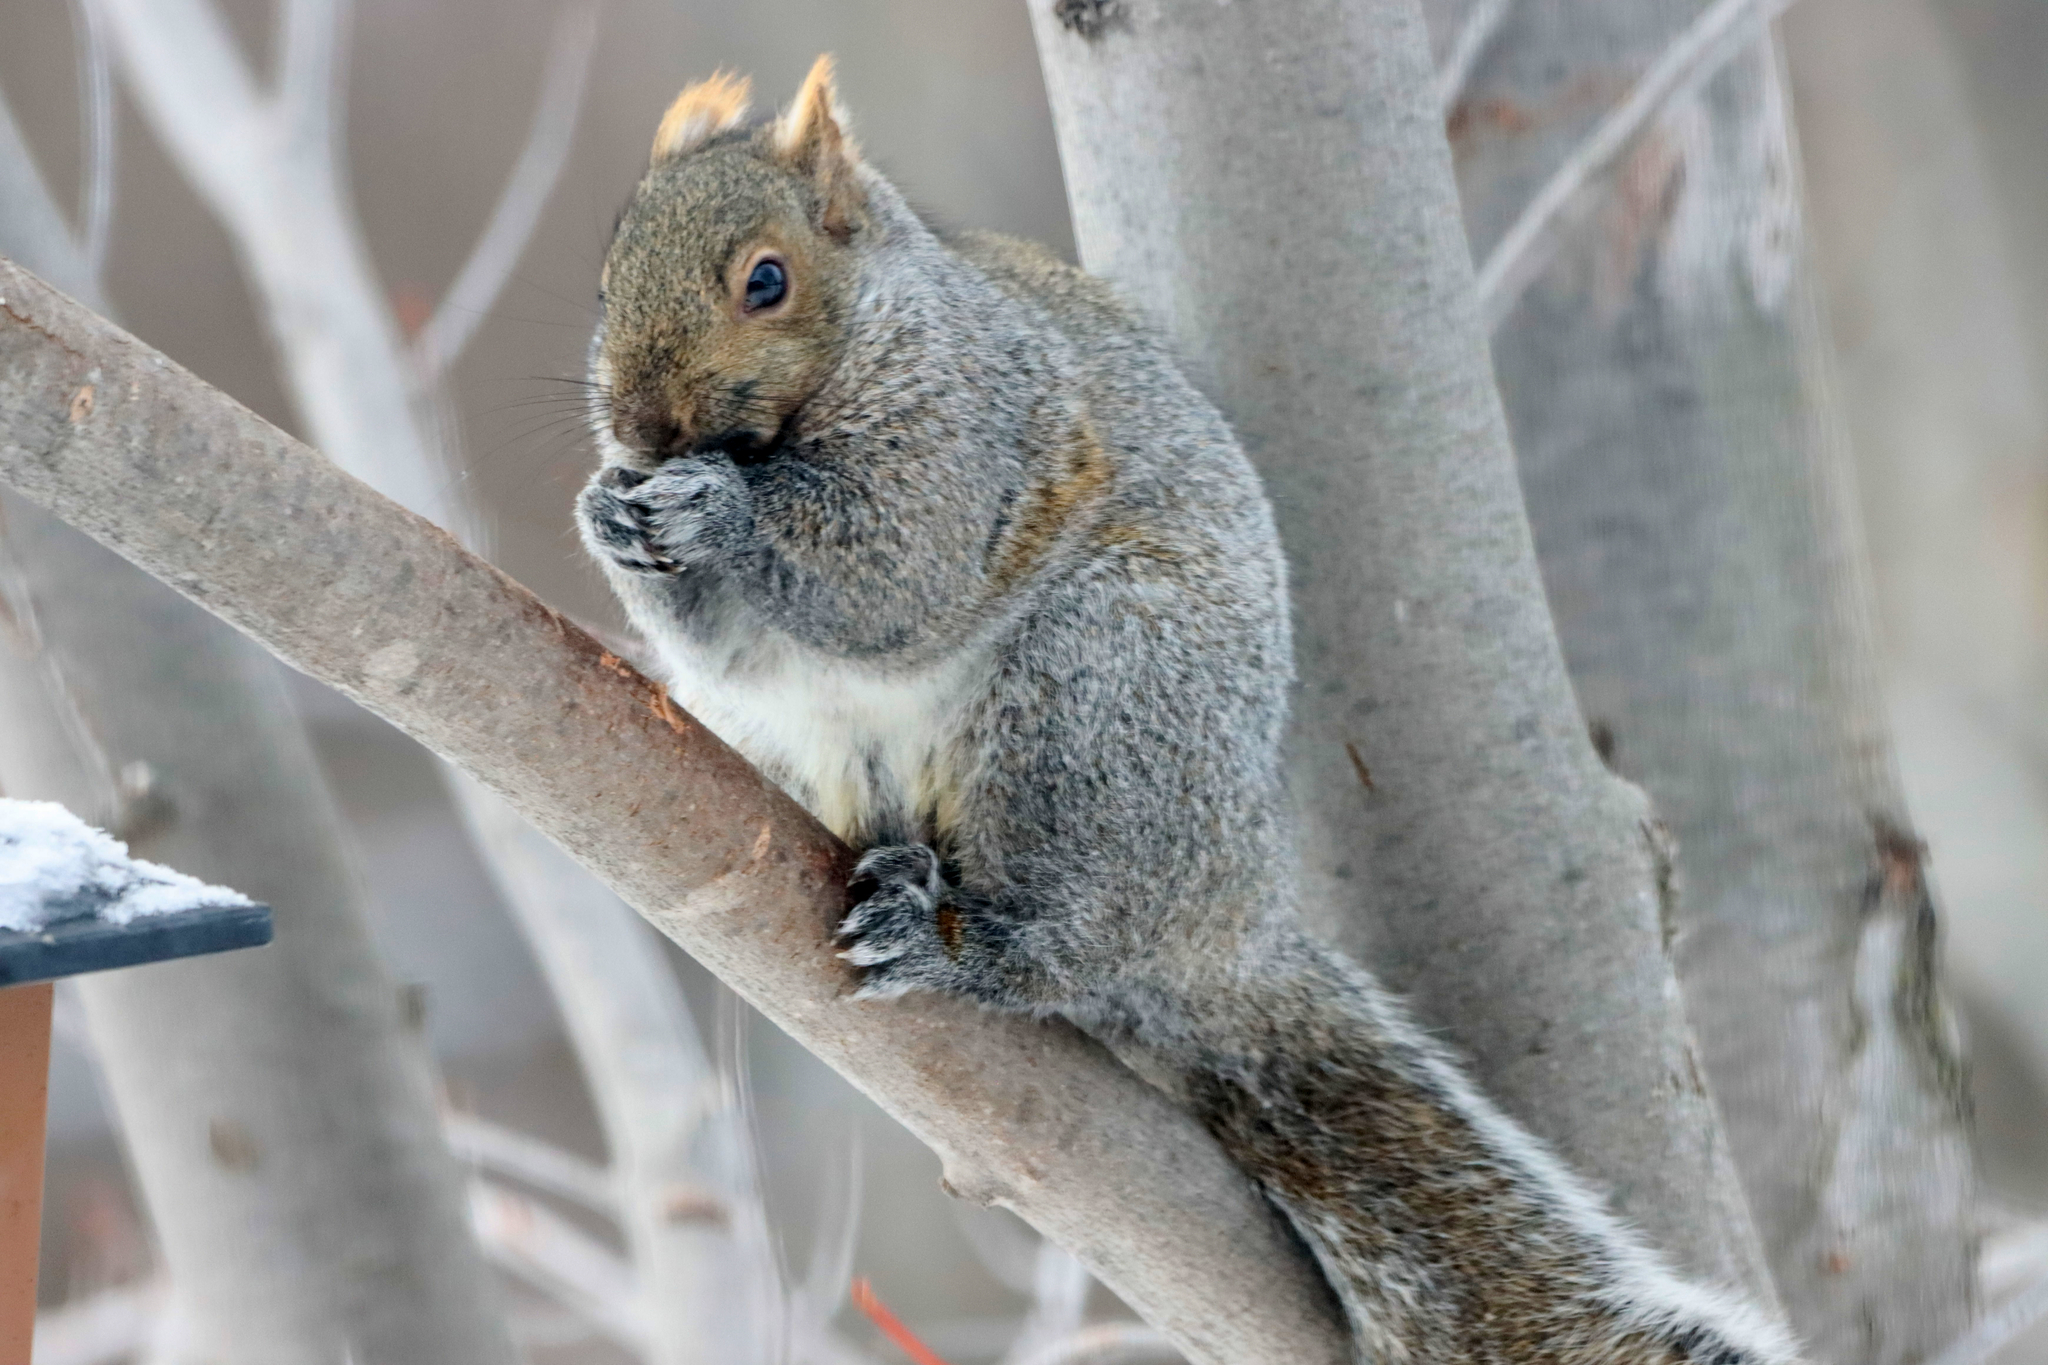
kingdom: Animalia
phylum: Chordata
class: Mammalia
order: Rodentia
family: Sciuridae
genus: Sciurus
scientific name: Sciurus carolinensis
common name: Eastern gray squirrel
